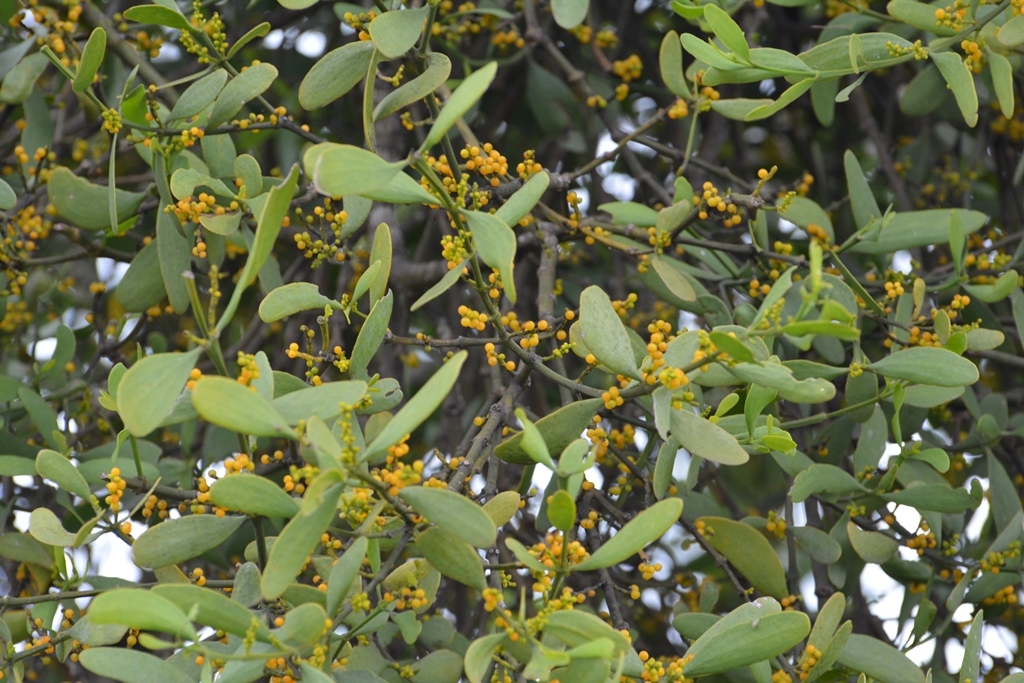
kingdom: Plantae
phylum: Tracheophyta
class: Magnoliopsida
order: Santalales
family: Viscaceae
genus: Phoradendron
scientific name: Phoradendron aurantiacum
